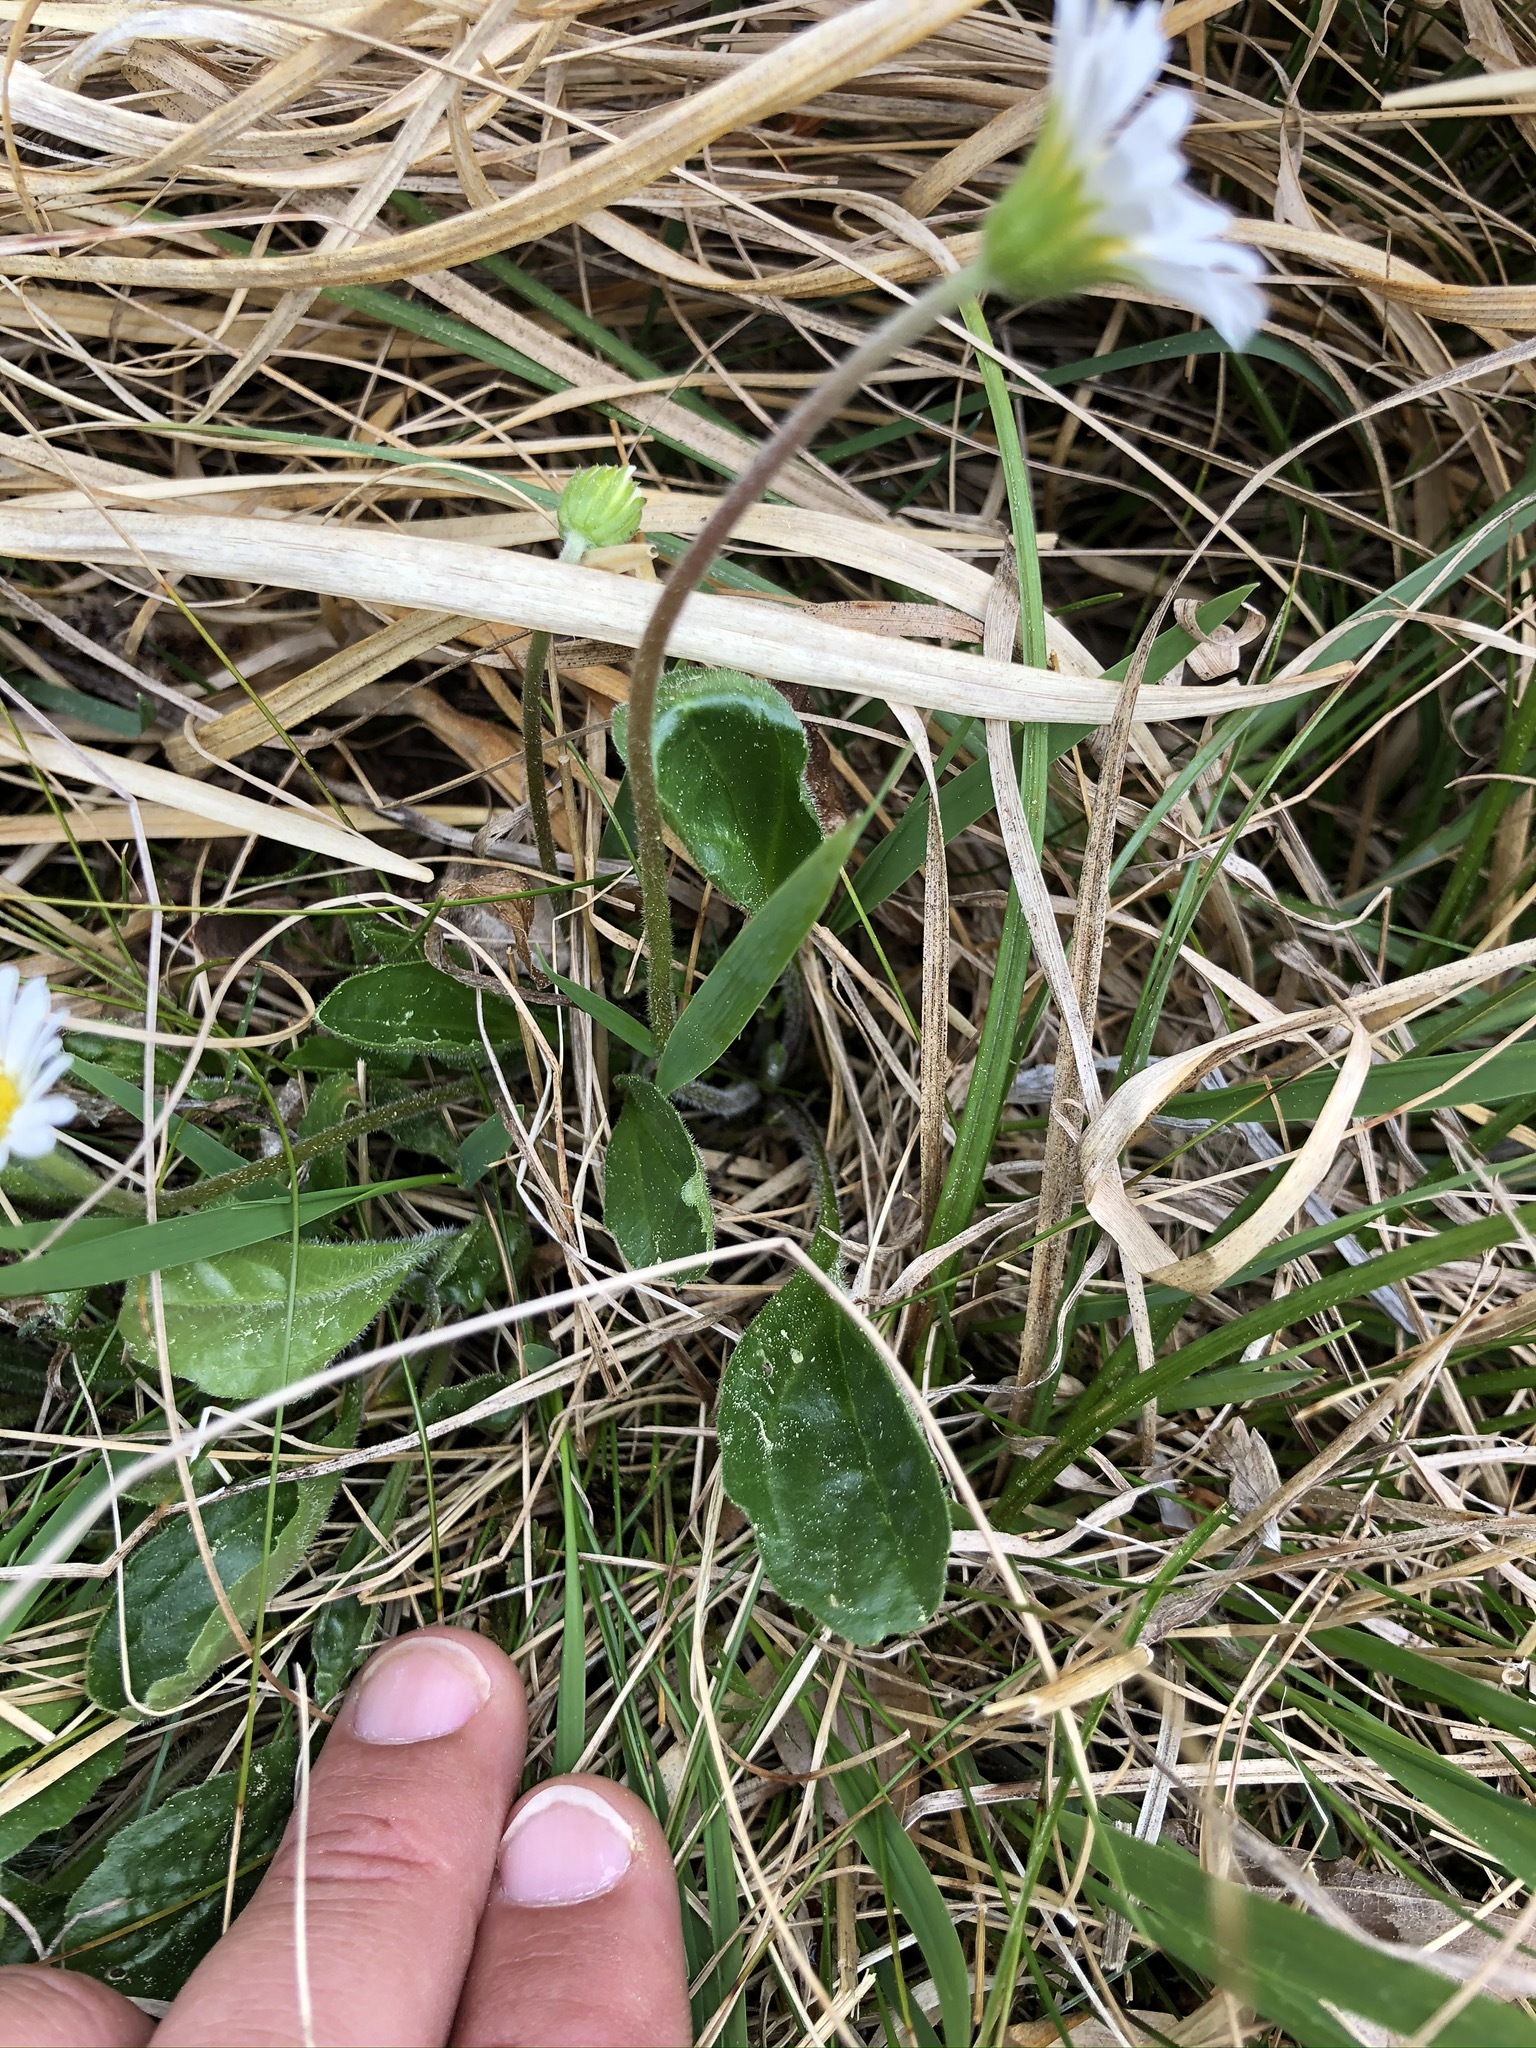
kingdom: Plantae
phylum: Tracheophyta
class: Magnoliopsida
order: Asterales
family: Asteraceae
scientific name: Asteraceae
